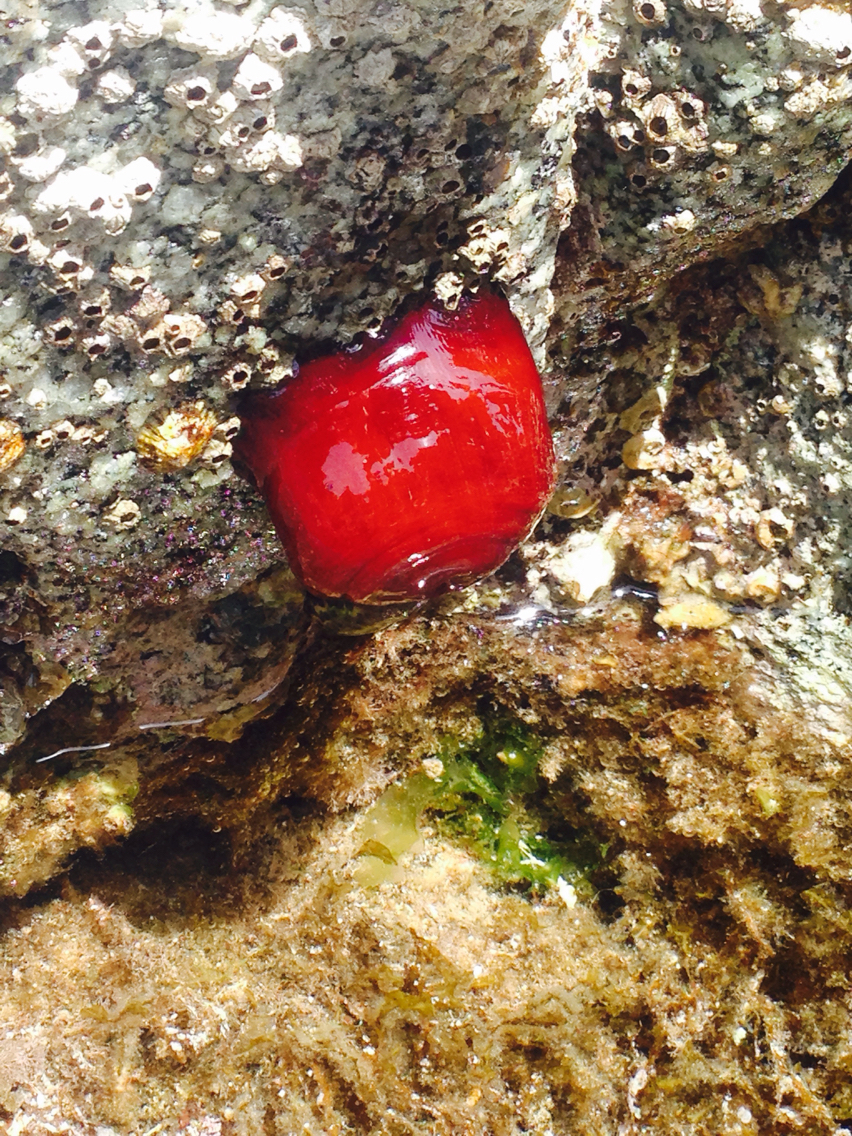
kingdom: Animalia
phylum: Cnidaria
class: Anthozoa
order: Actiniaria
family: Actiniidae
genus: Actinia
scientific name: Actinia mediterranea
